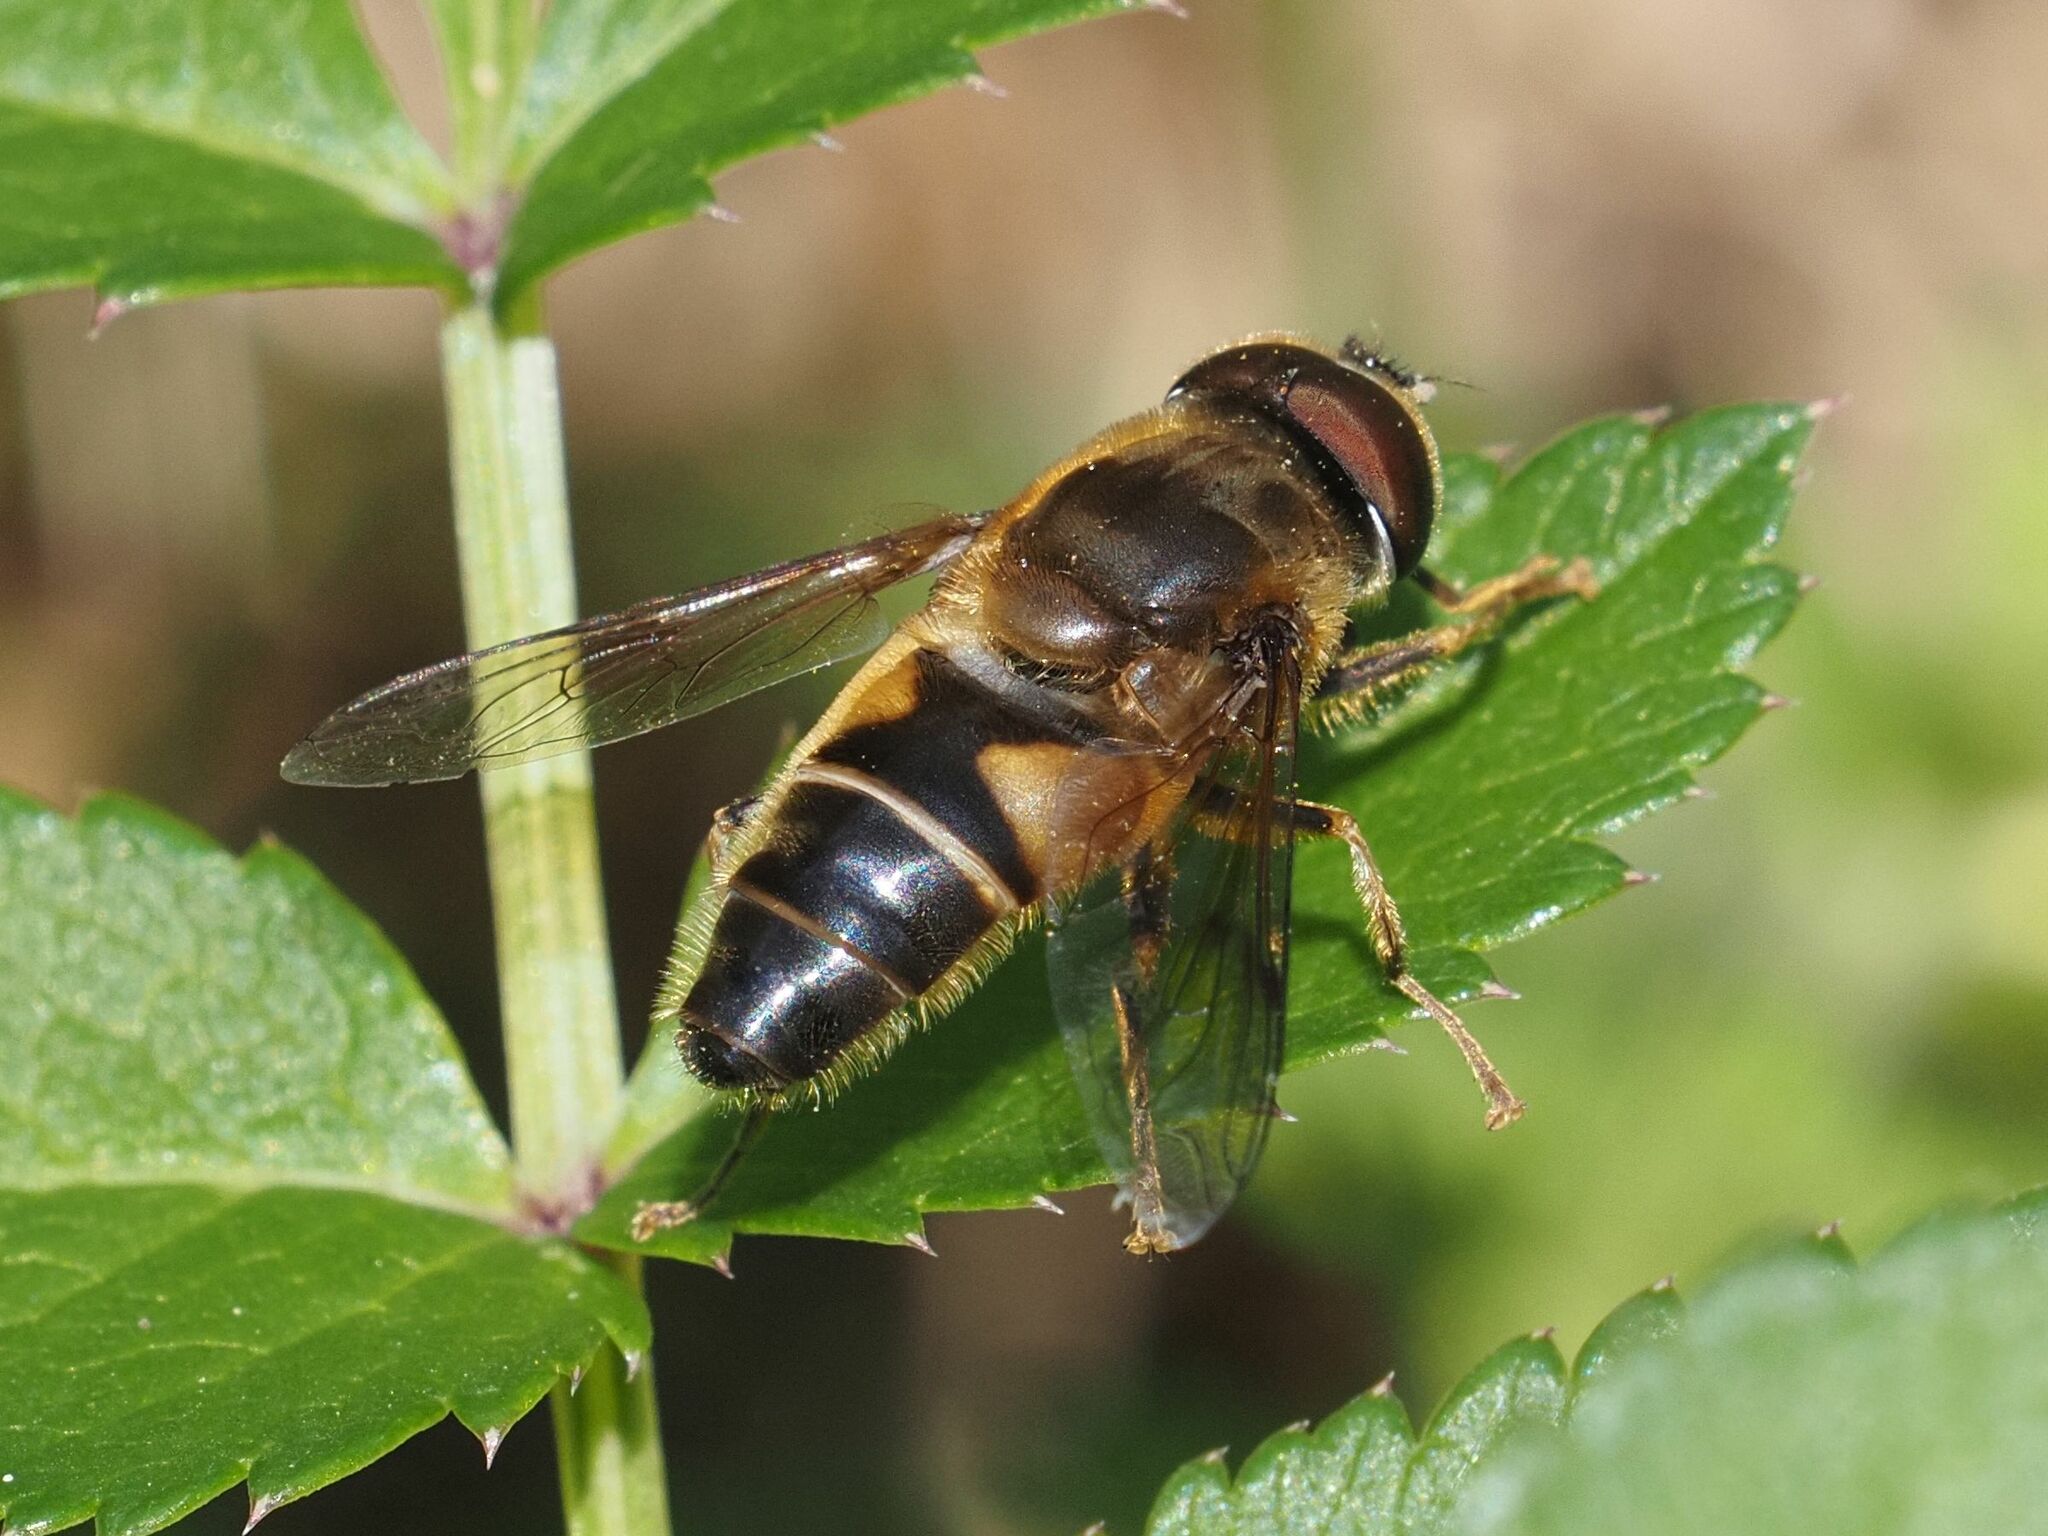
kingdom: Animalia
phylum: Arthropoda
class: Insecta
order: Diptera
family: Syrphidae
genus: Eristalis
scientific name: Eristalis pertinax
